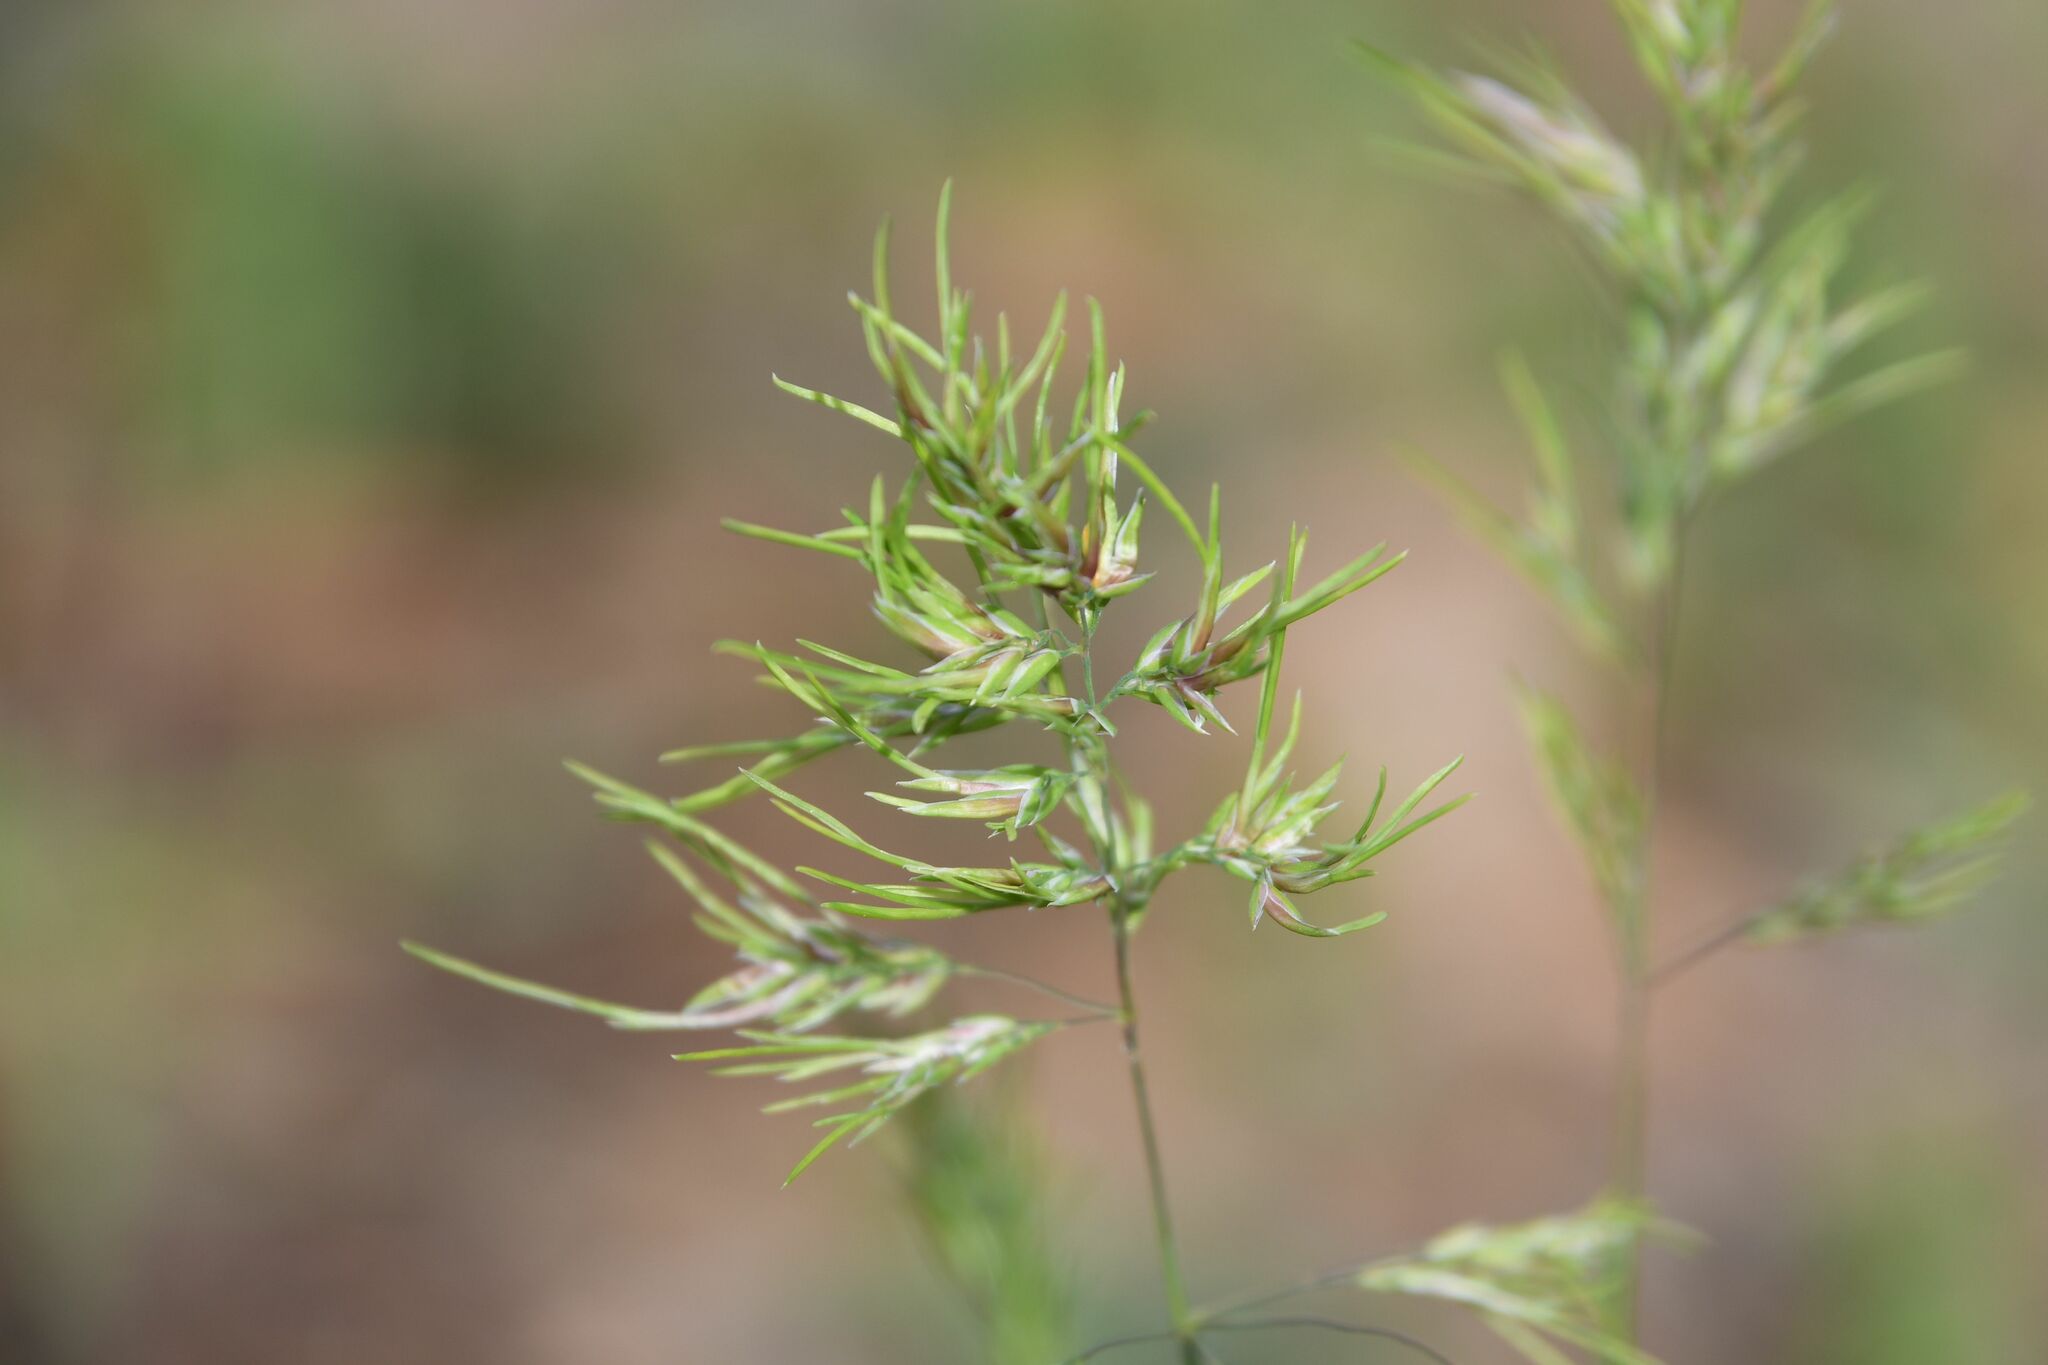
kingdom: Plantae
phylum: Tracheophyta
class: Liliopsida
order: Poales
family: Poaceae
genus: Poa
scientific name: Poa bulbosa
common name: Bulbous bluegrass
